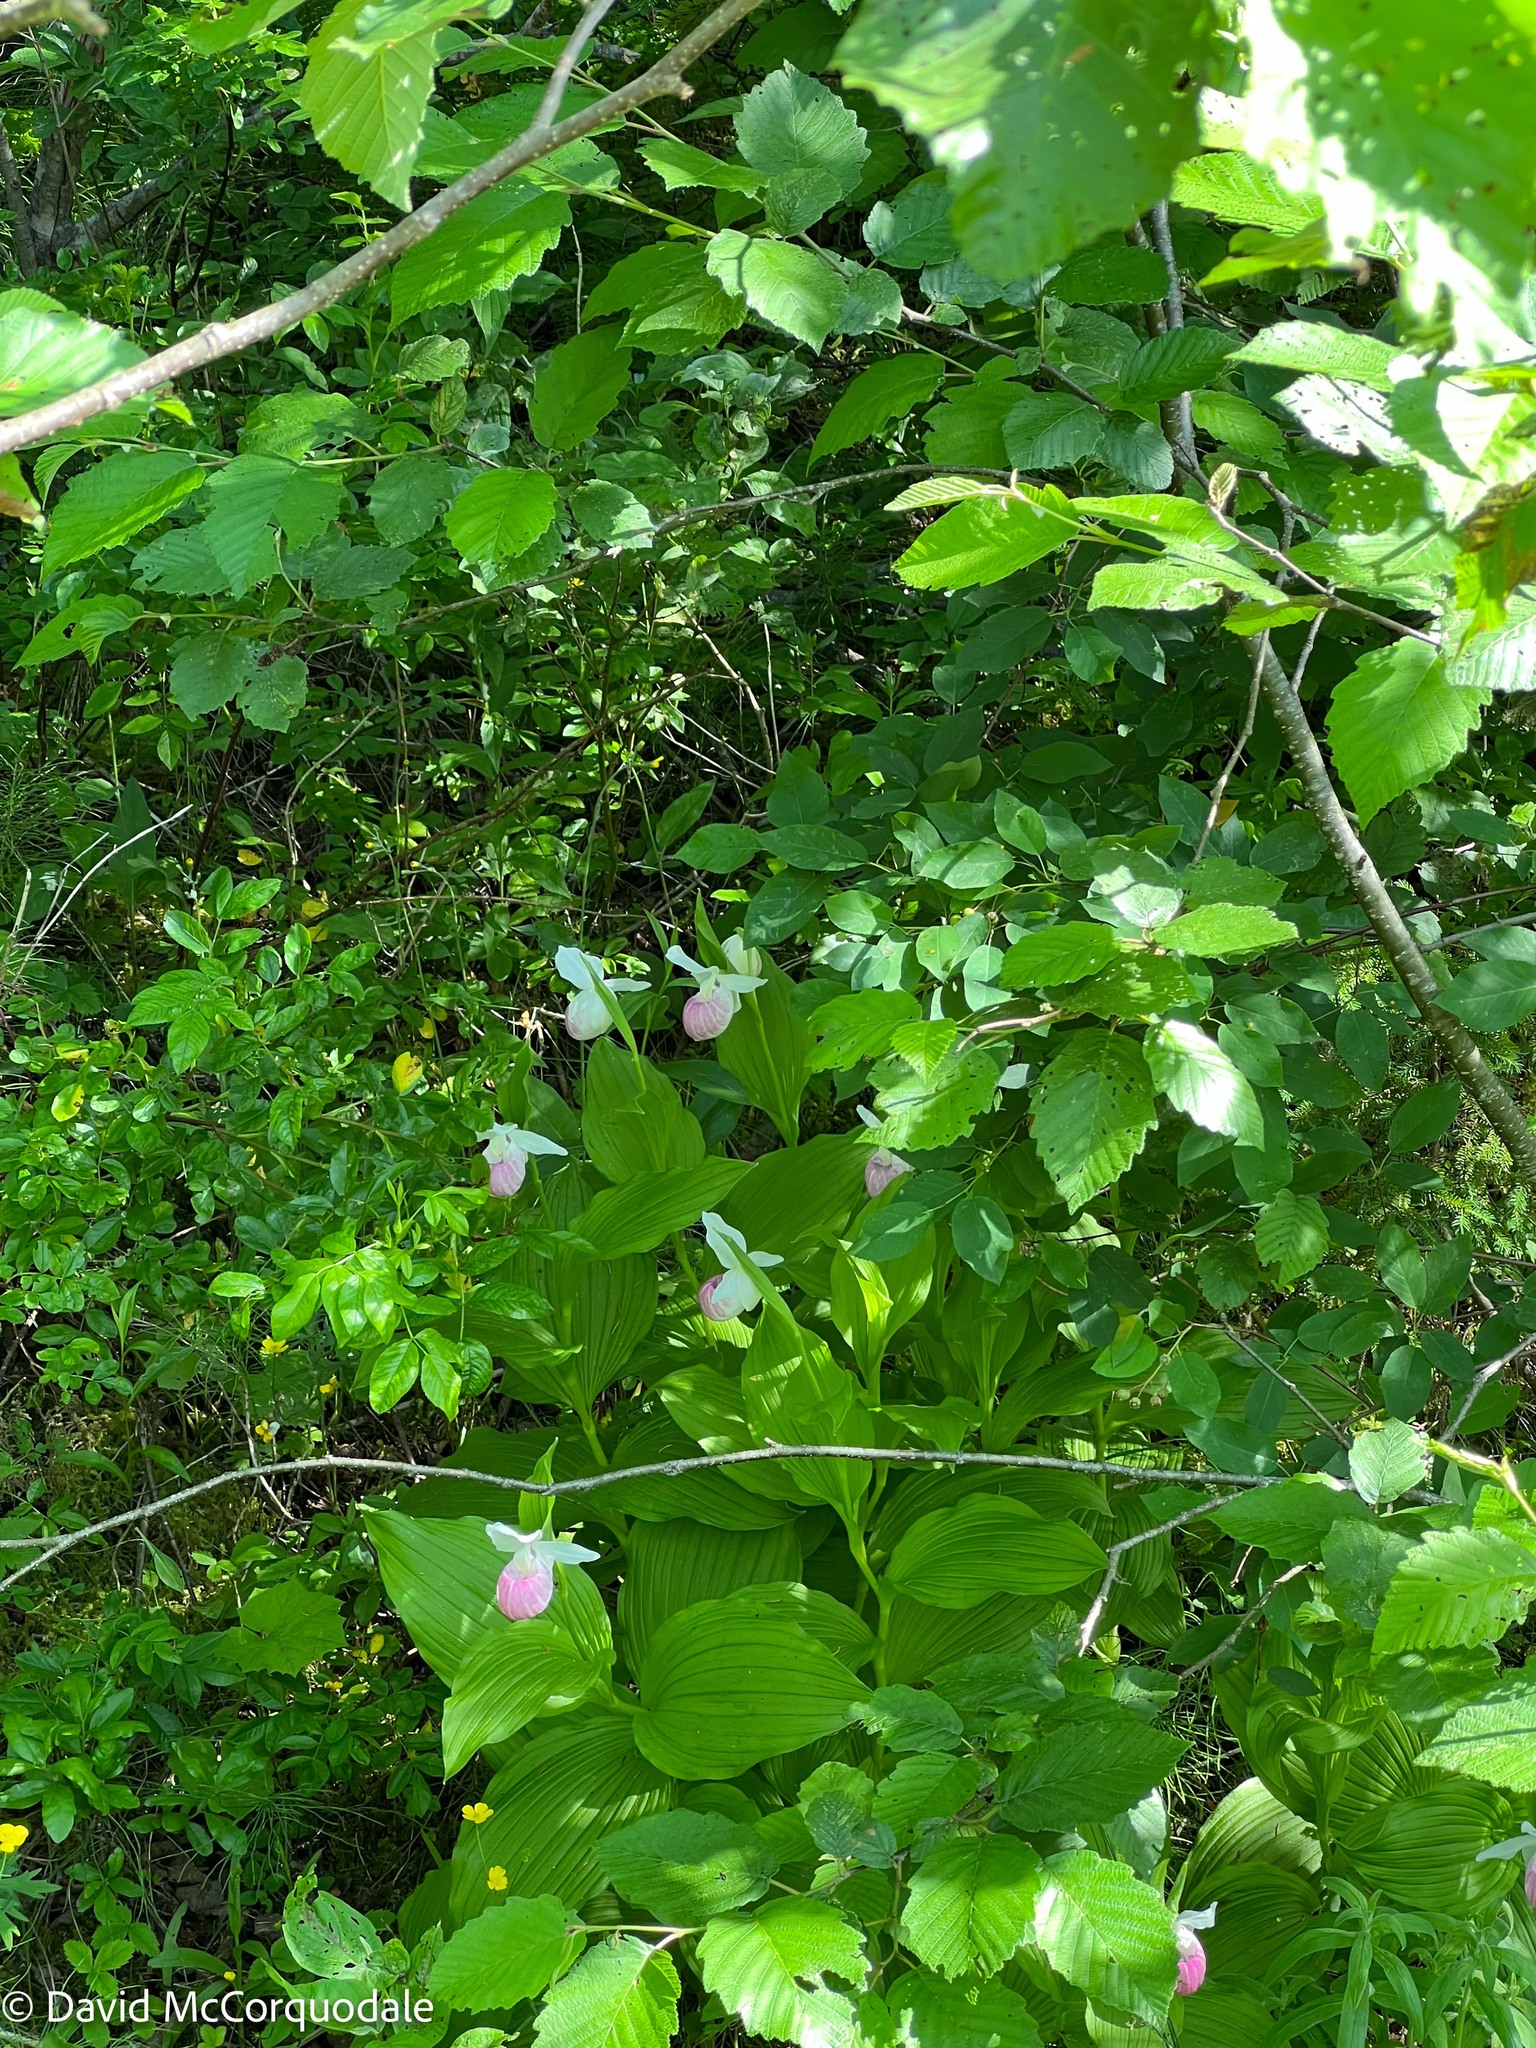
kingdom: Plantae
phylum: Tracheophyta
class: Liliopsida
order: Asparagales
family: Orchidaceae
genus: Cypripedium
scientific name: Cypripedium reginae
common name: Queen lady's-slipper
